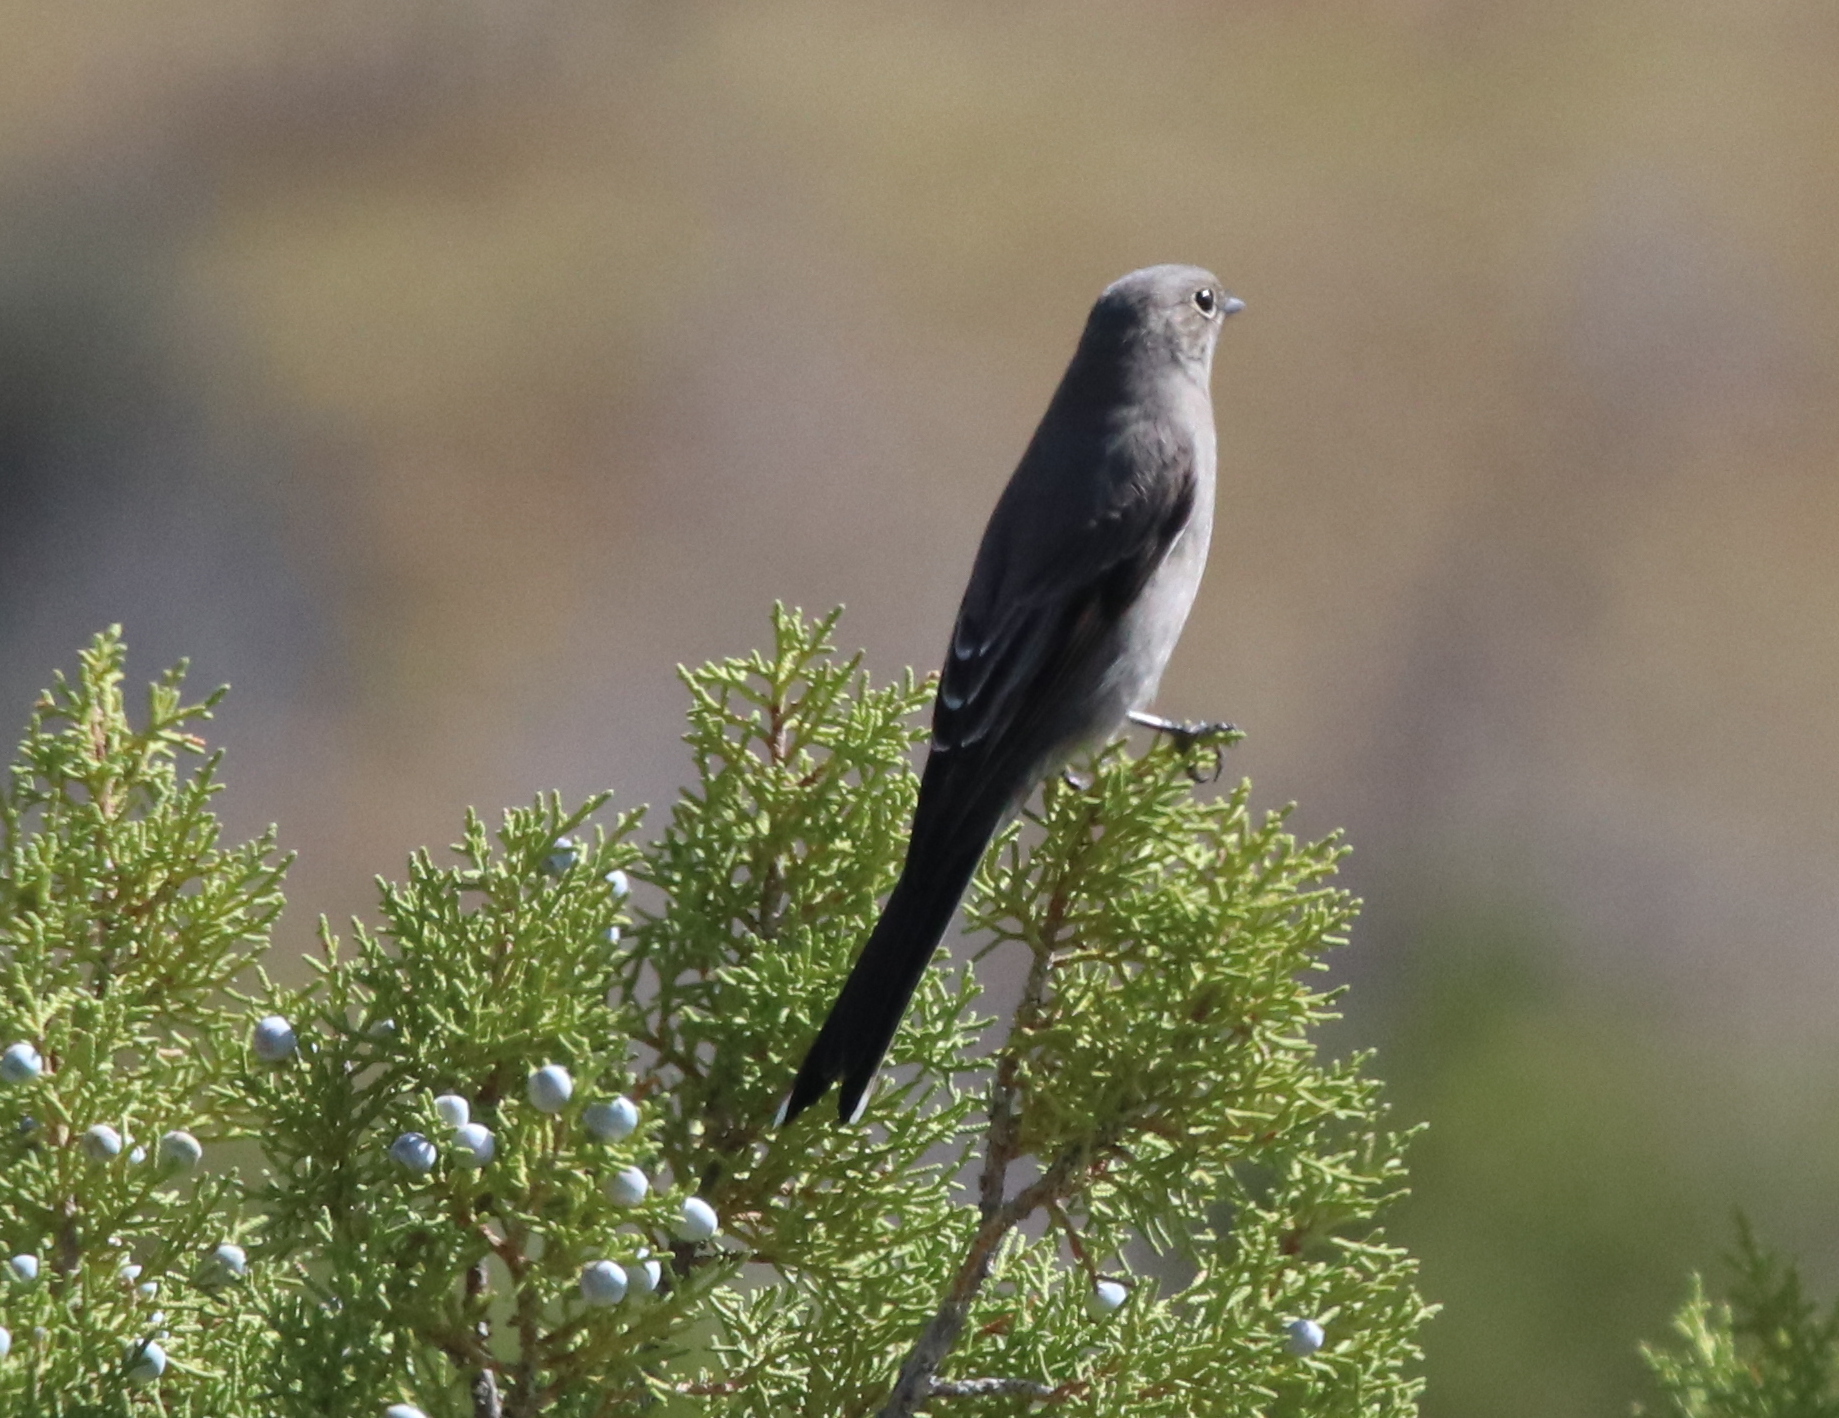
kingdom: Animalia
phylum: Chordata
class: Aves
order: Passeriformes
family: Turdidae
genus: Myadestes
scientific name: Myadestes townsendi
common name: Townsend's solitaire
